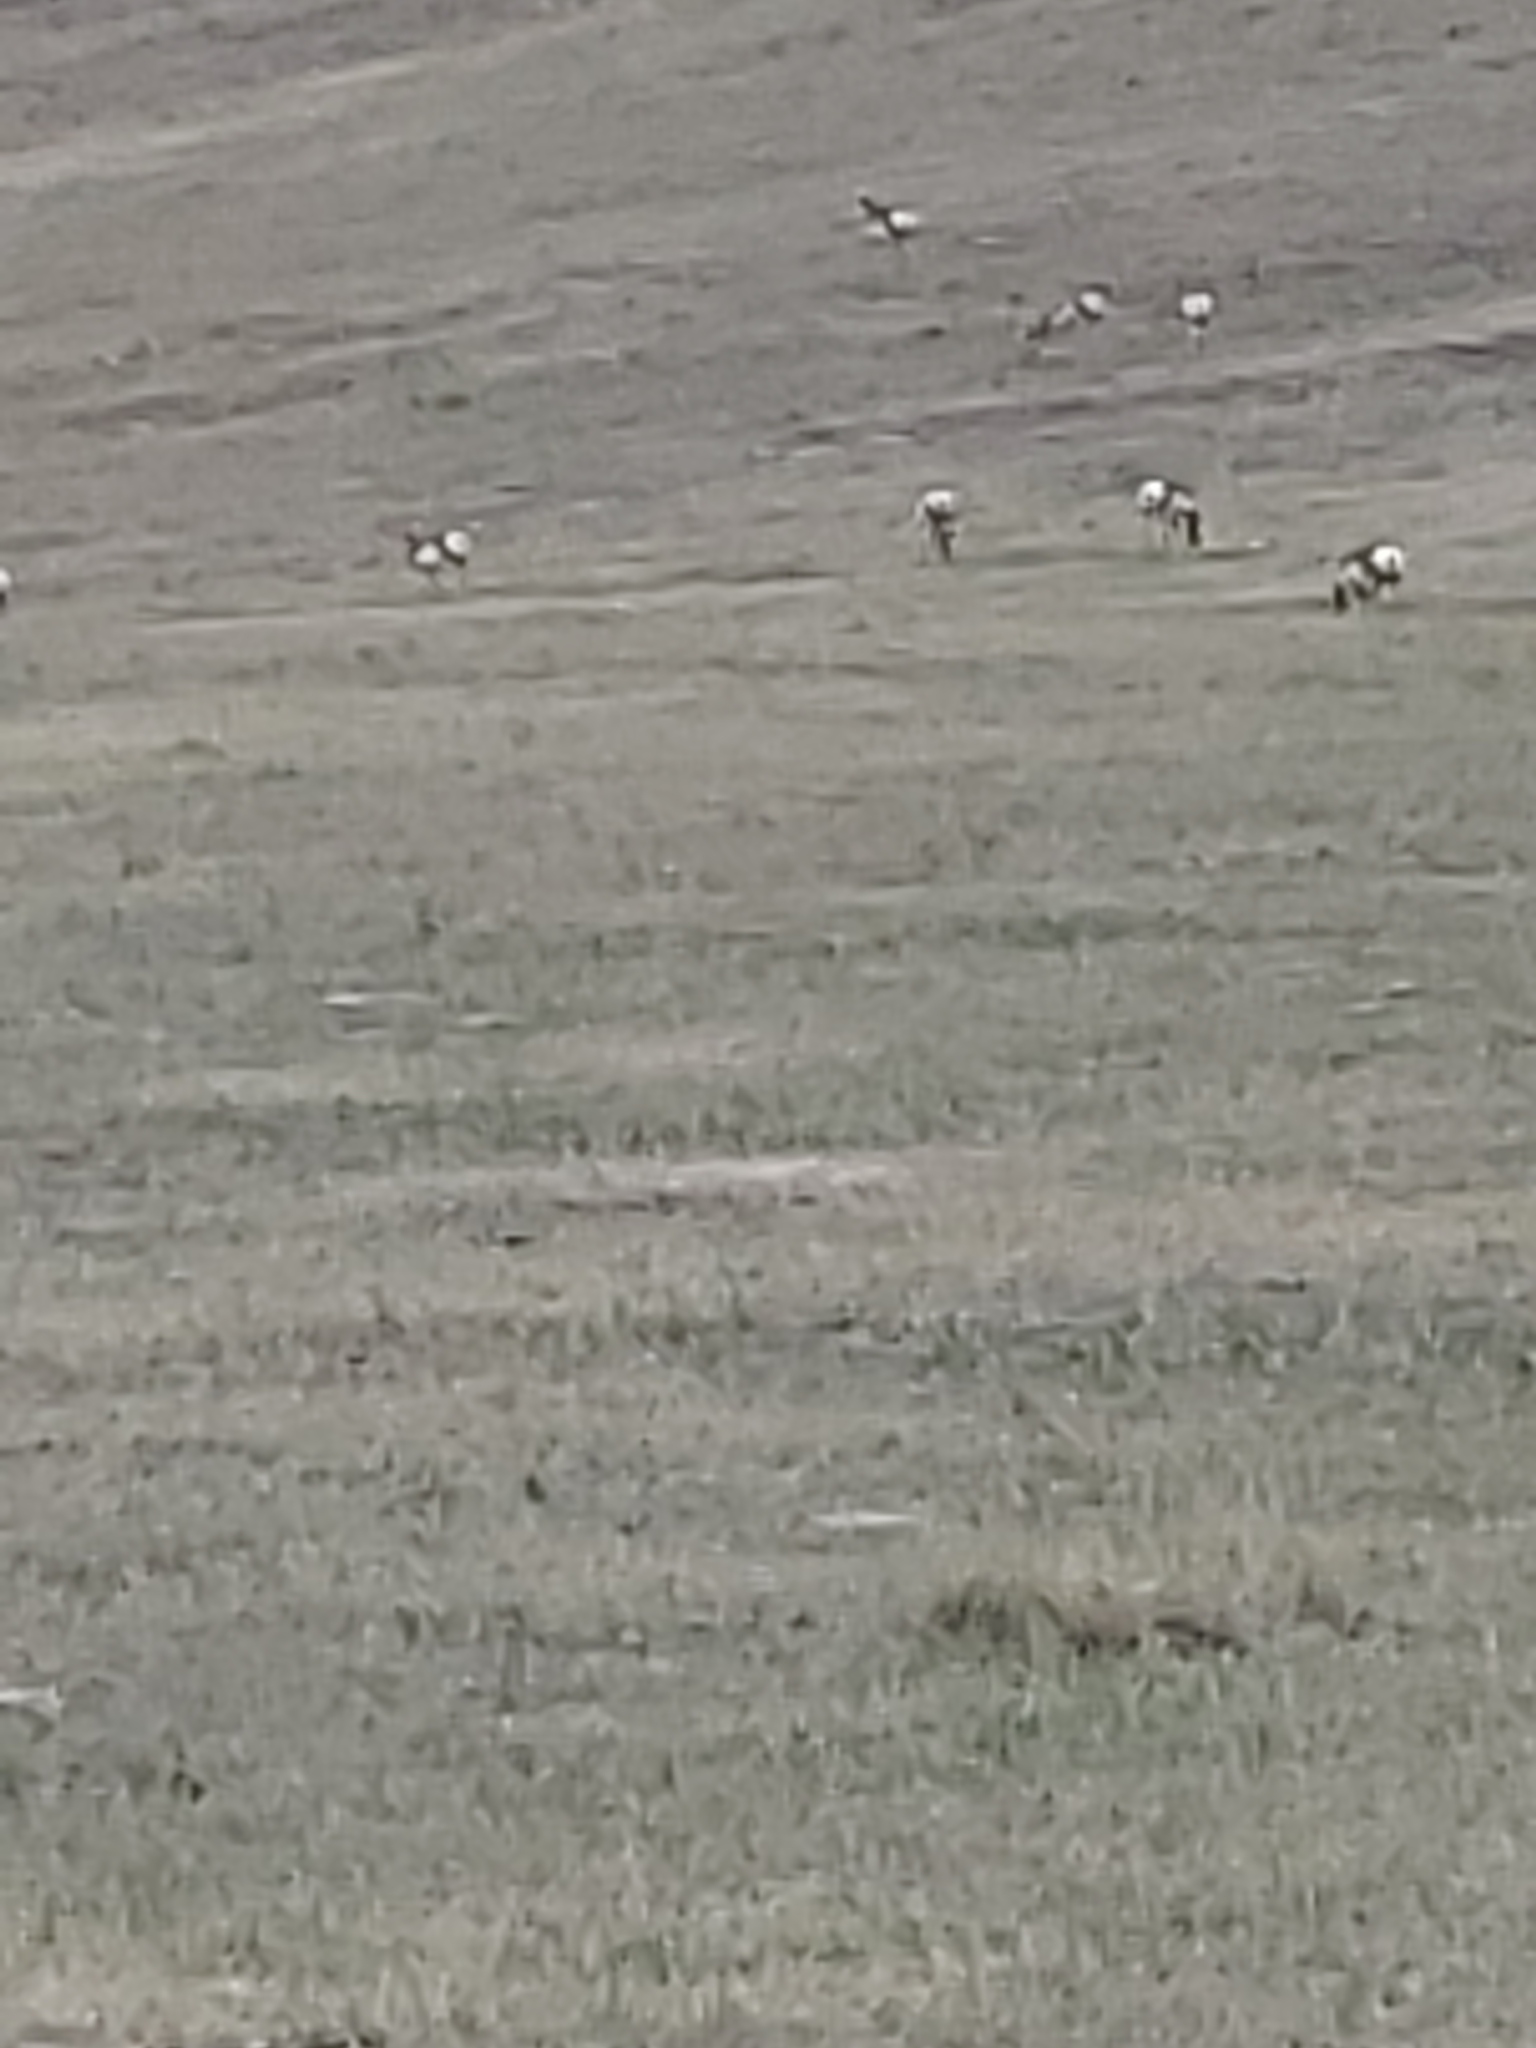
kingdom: Animalia
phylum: Chordata
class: Mammalia
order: Artiodactyla
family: Antilocapridae
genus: Antilocapra
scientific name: Antilocapra americana
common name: Pronghorn
